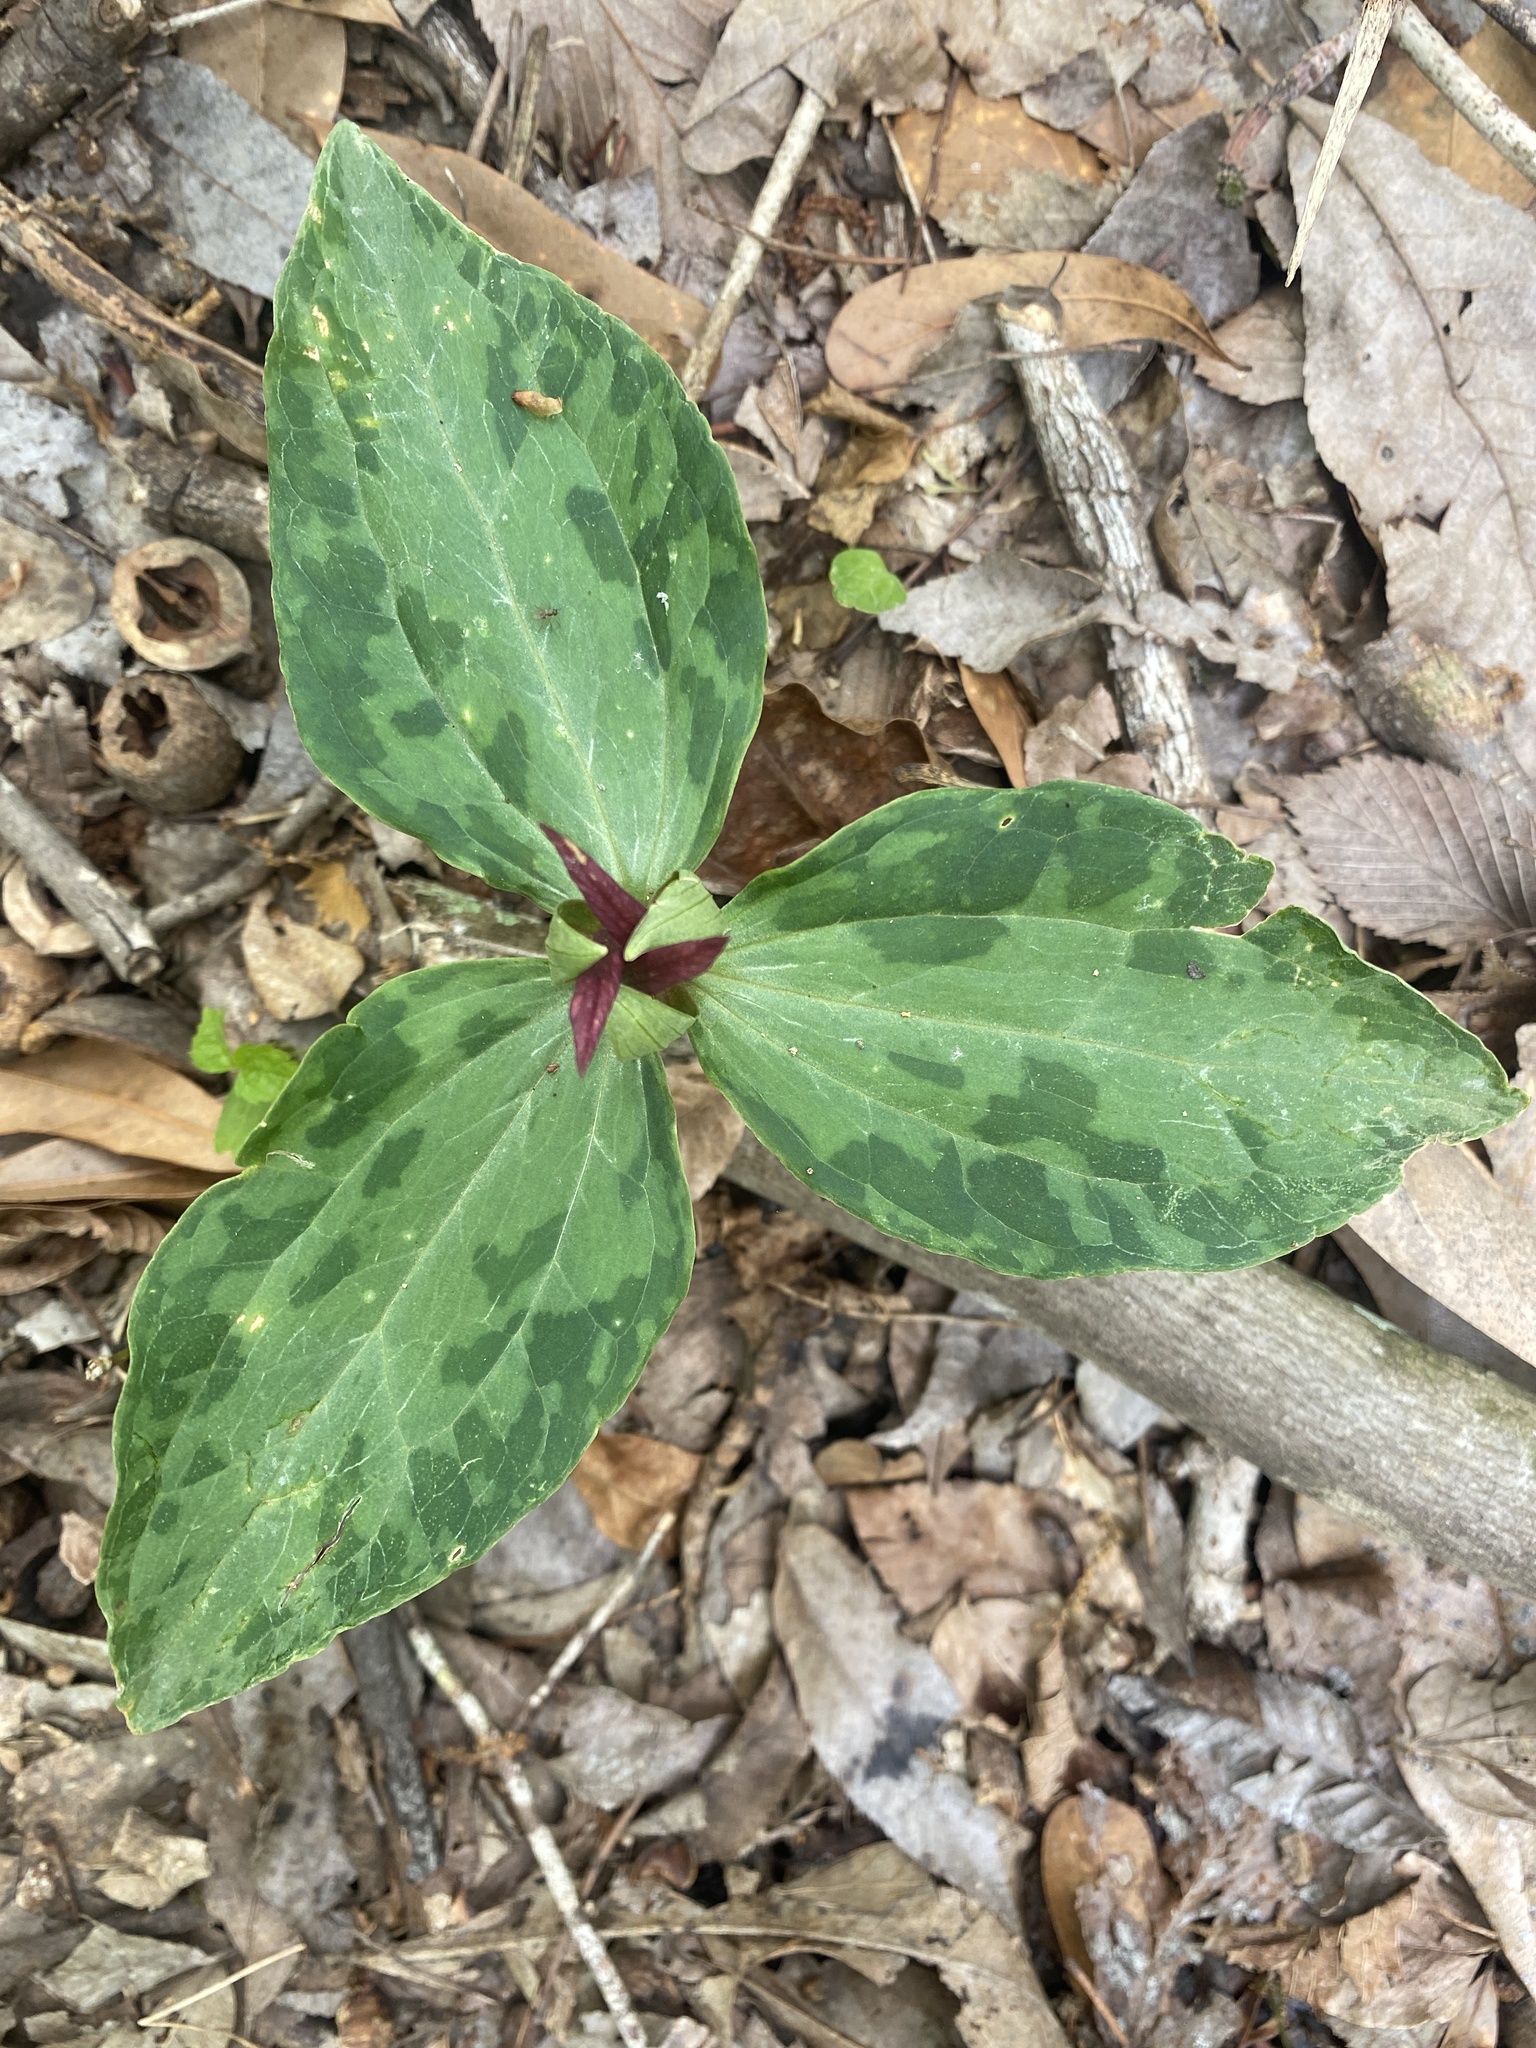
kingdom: Plantae
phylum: Tracheophyta
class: Liliopsida
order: Liliales
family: Melanthiaceae
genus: Trillium
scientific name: Trillium foetidissimum
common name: Mississippi river trillium
